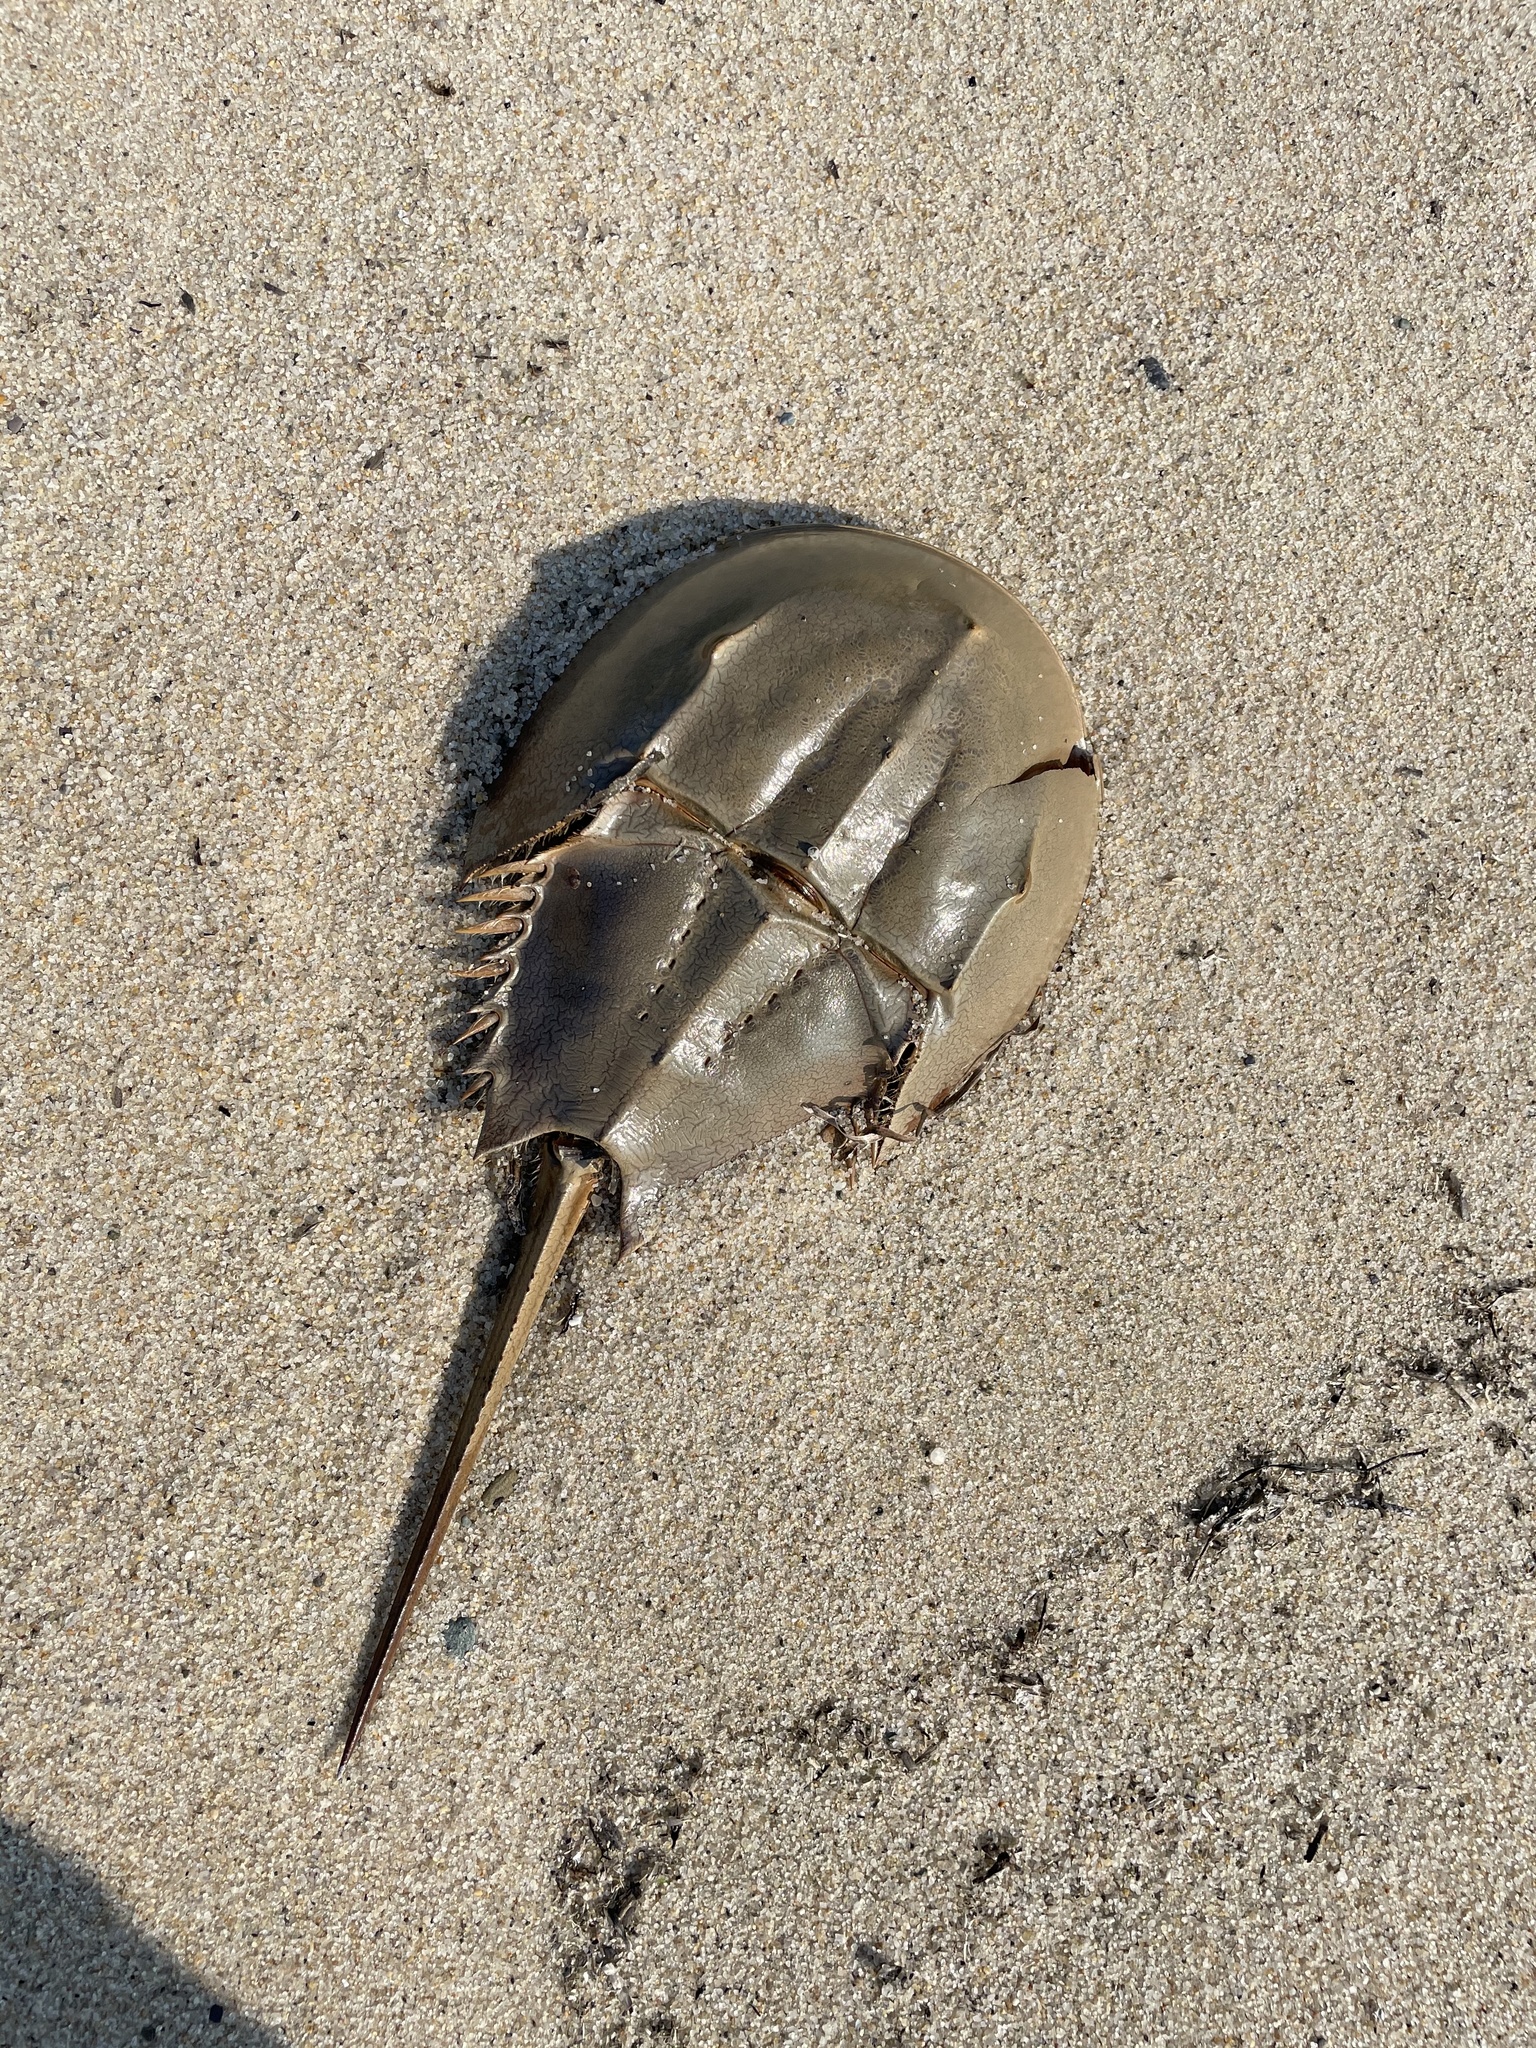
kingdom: Animalia
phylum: Arthropoda
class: Merostomata
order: Xiphosurida
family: Limulidae
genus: Limulus
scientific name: Limulus polyphemus
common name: Horseshoe crab
